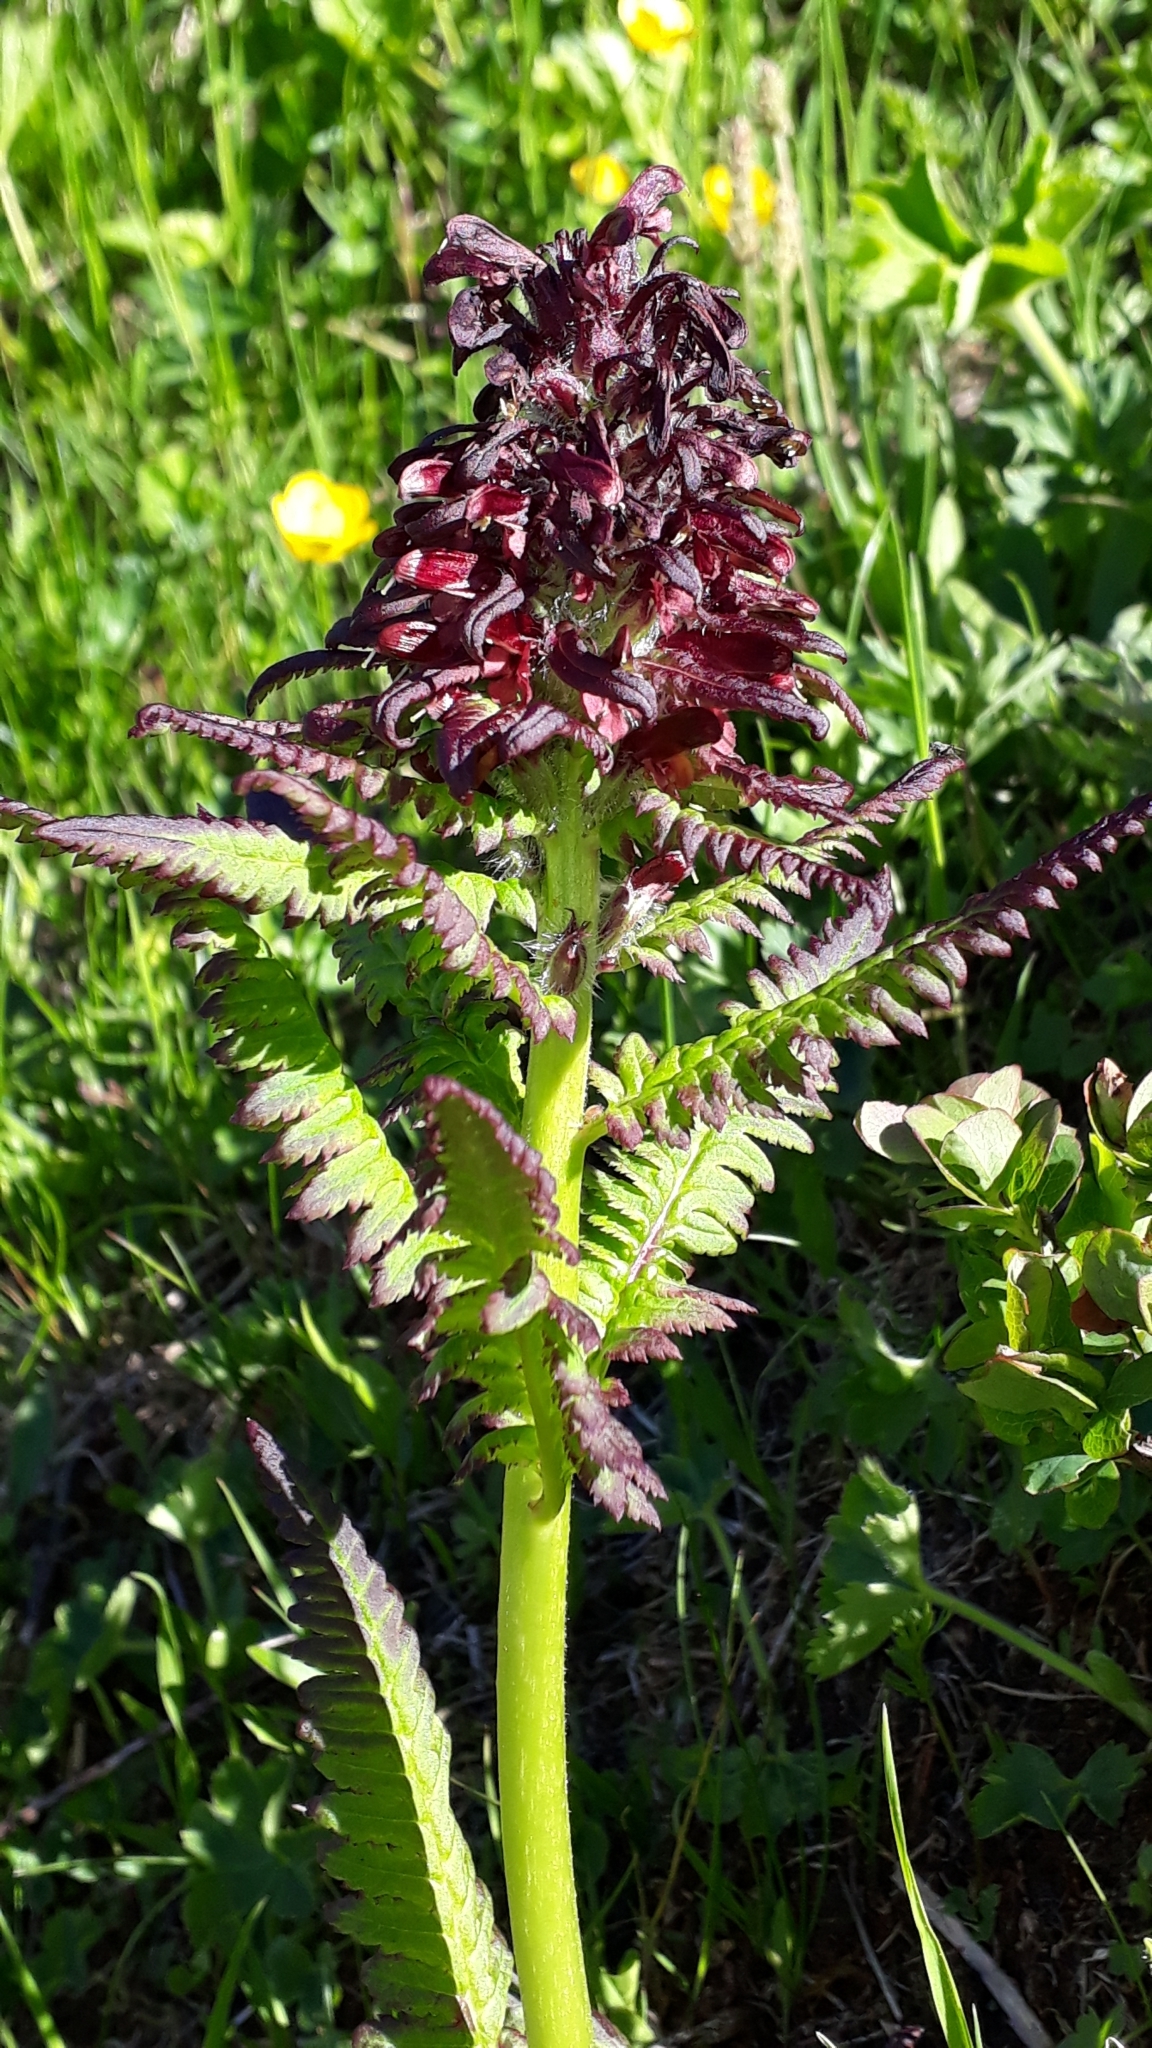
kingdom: Plantae
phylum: Tracheophyta
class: Magnoliopsida
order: Lamiales
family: Orobanchaceae
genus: Pedicularis
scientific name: Pedicularis recutita
